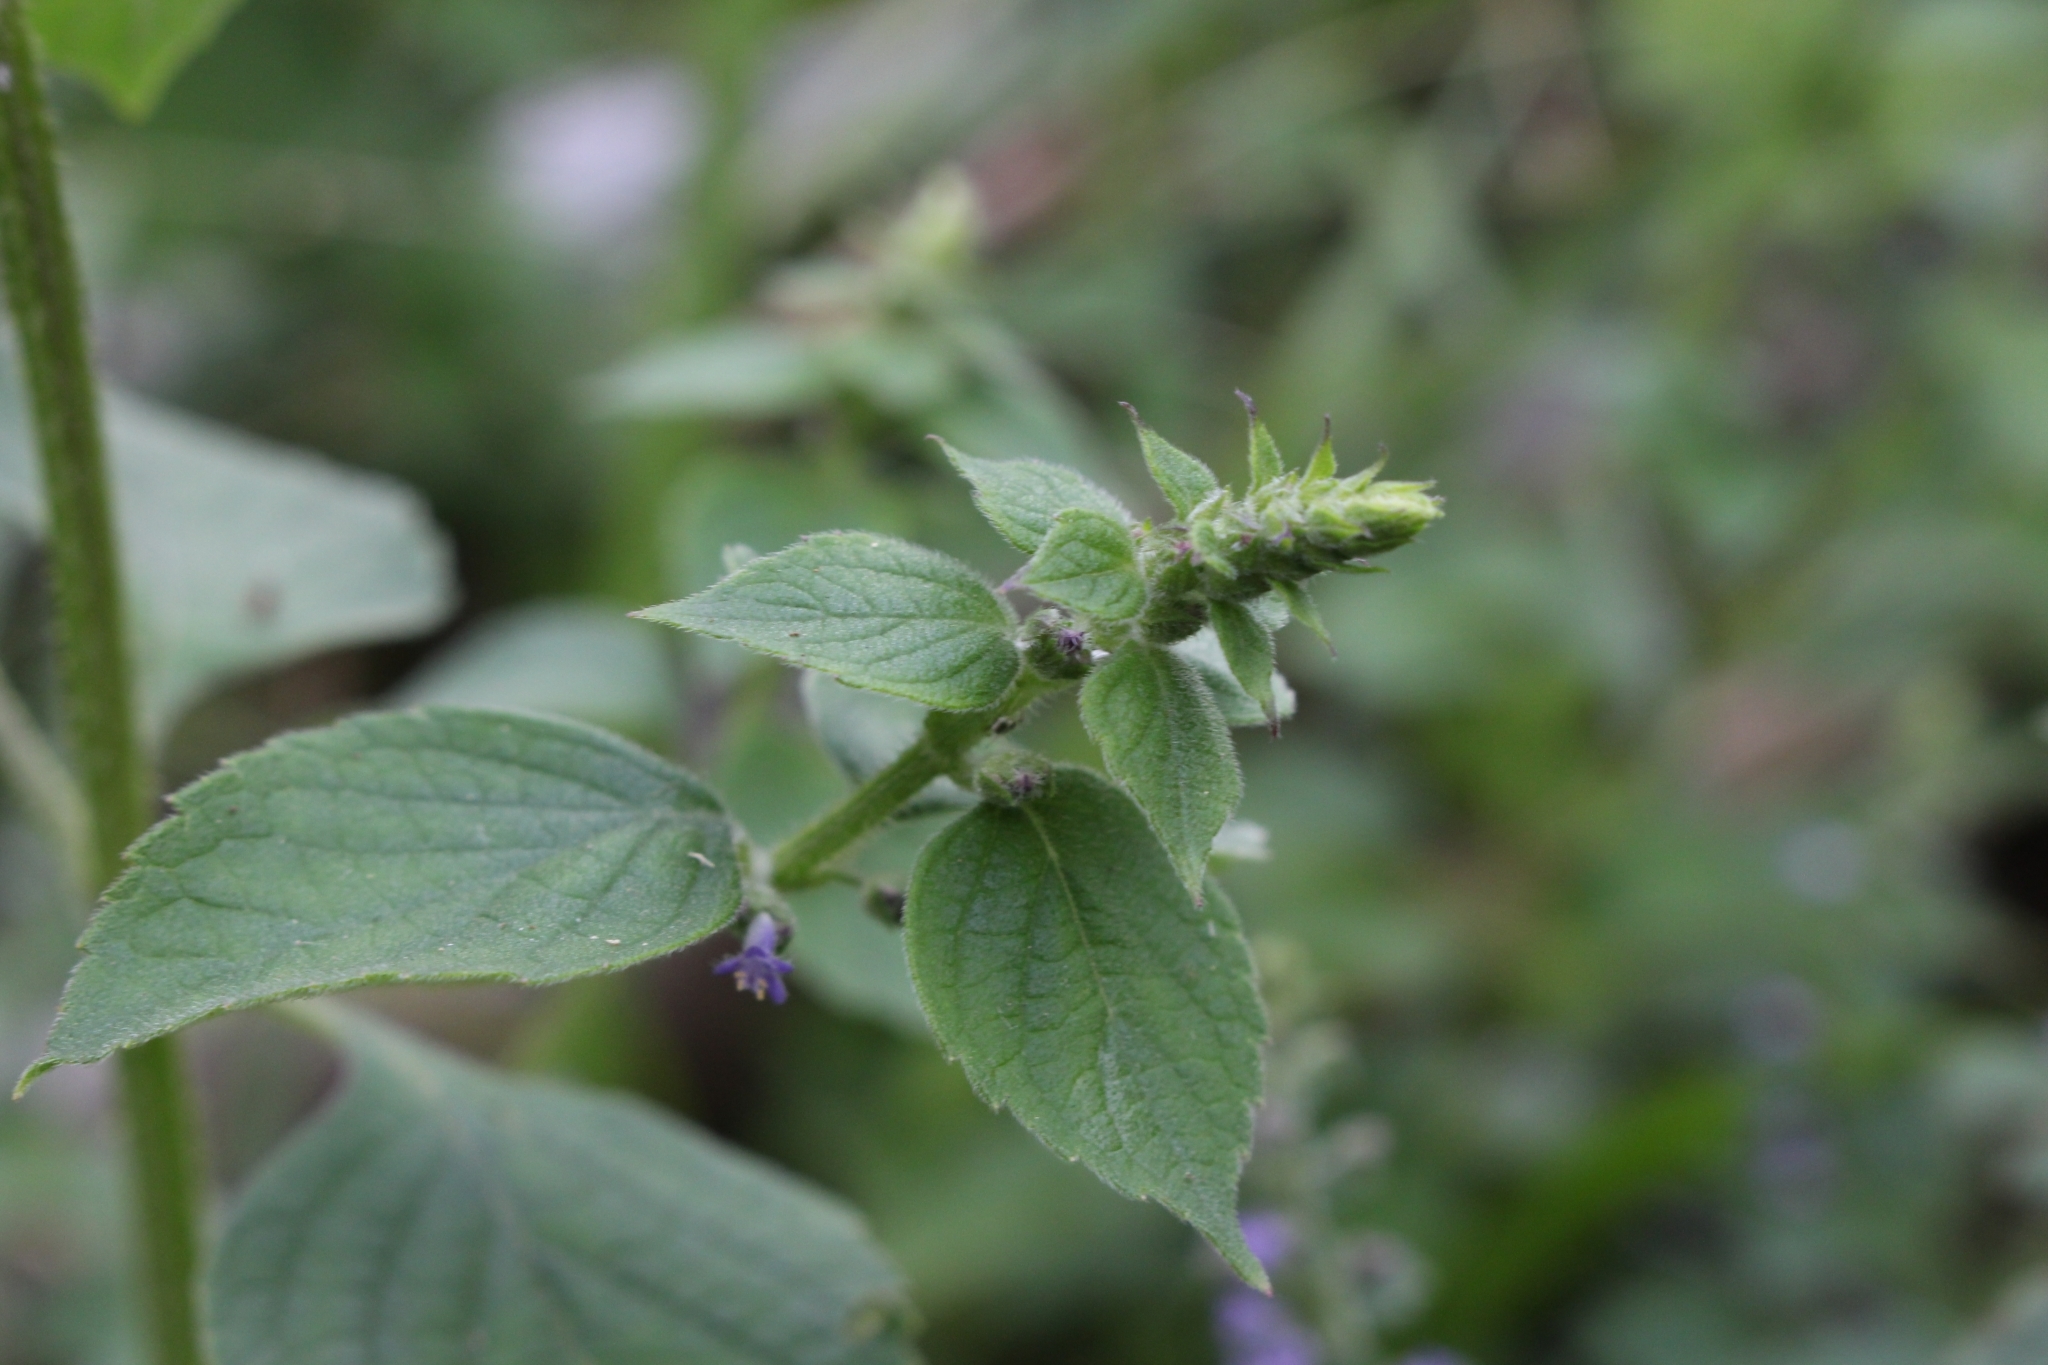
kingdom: Plantae
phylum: Tracheophyta
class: Magnoliopsida
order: Lamiales
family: Lamiaceae
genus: Cantinoa
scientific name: Cantinoa mutabilis
